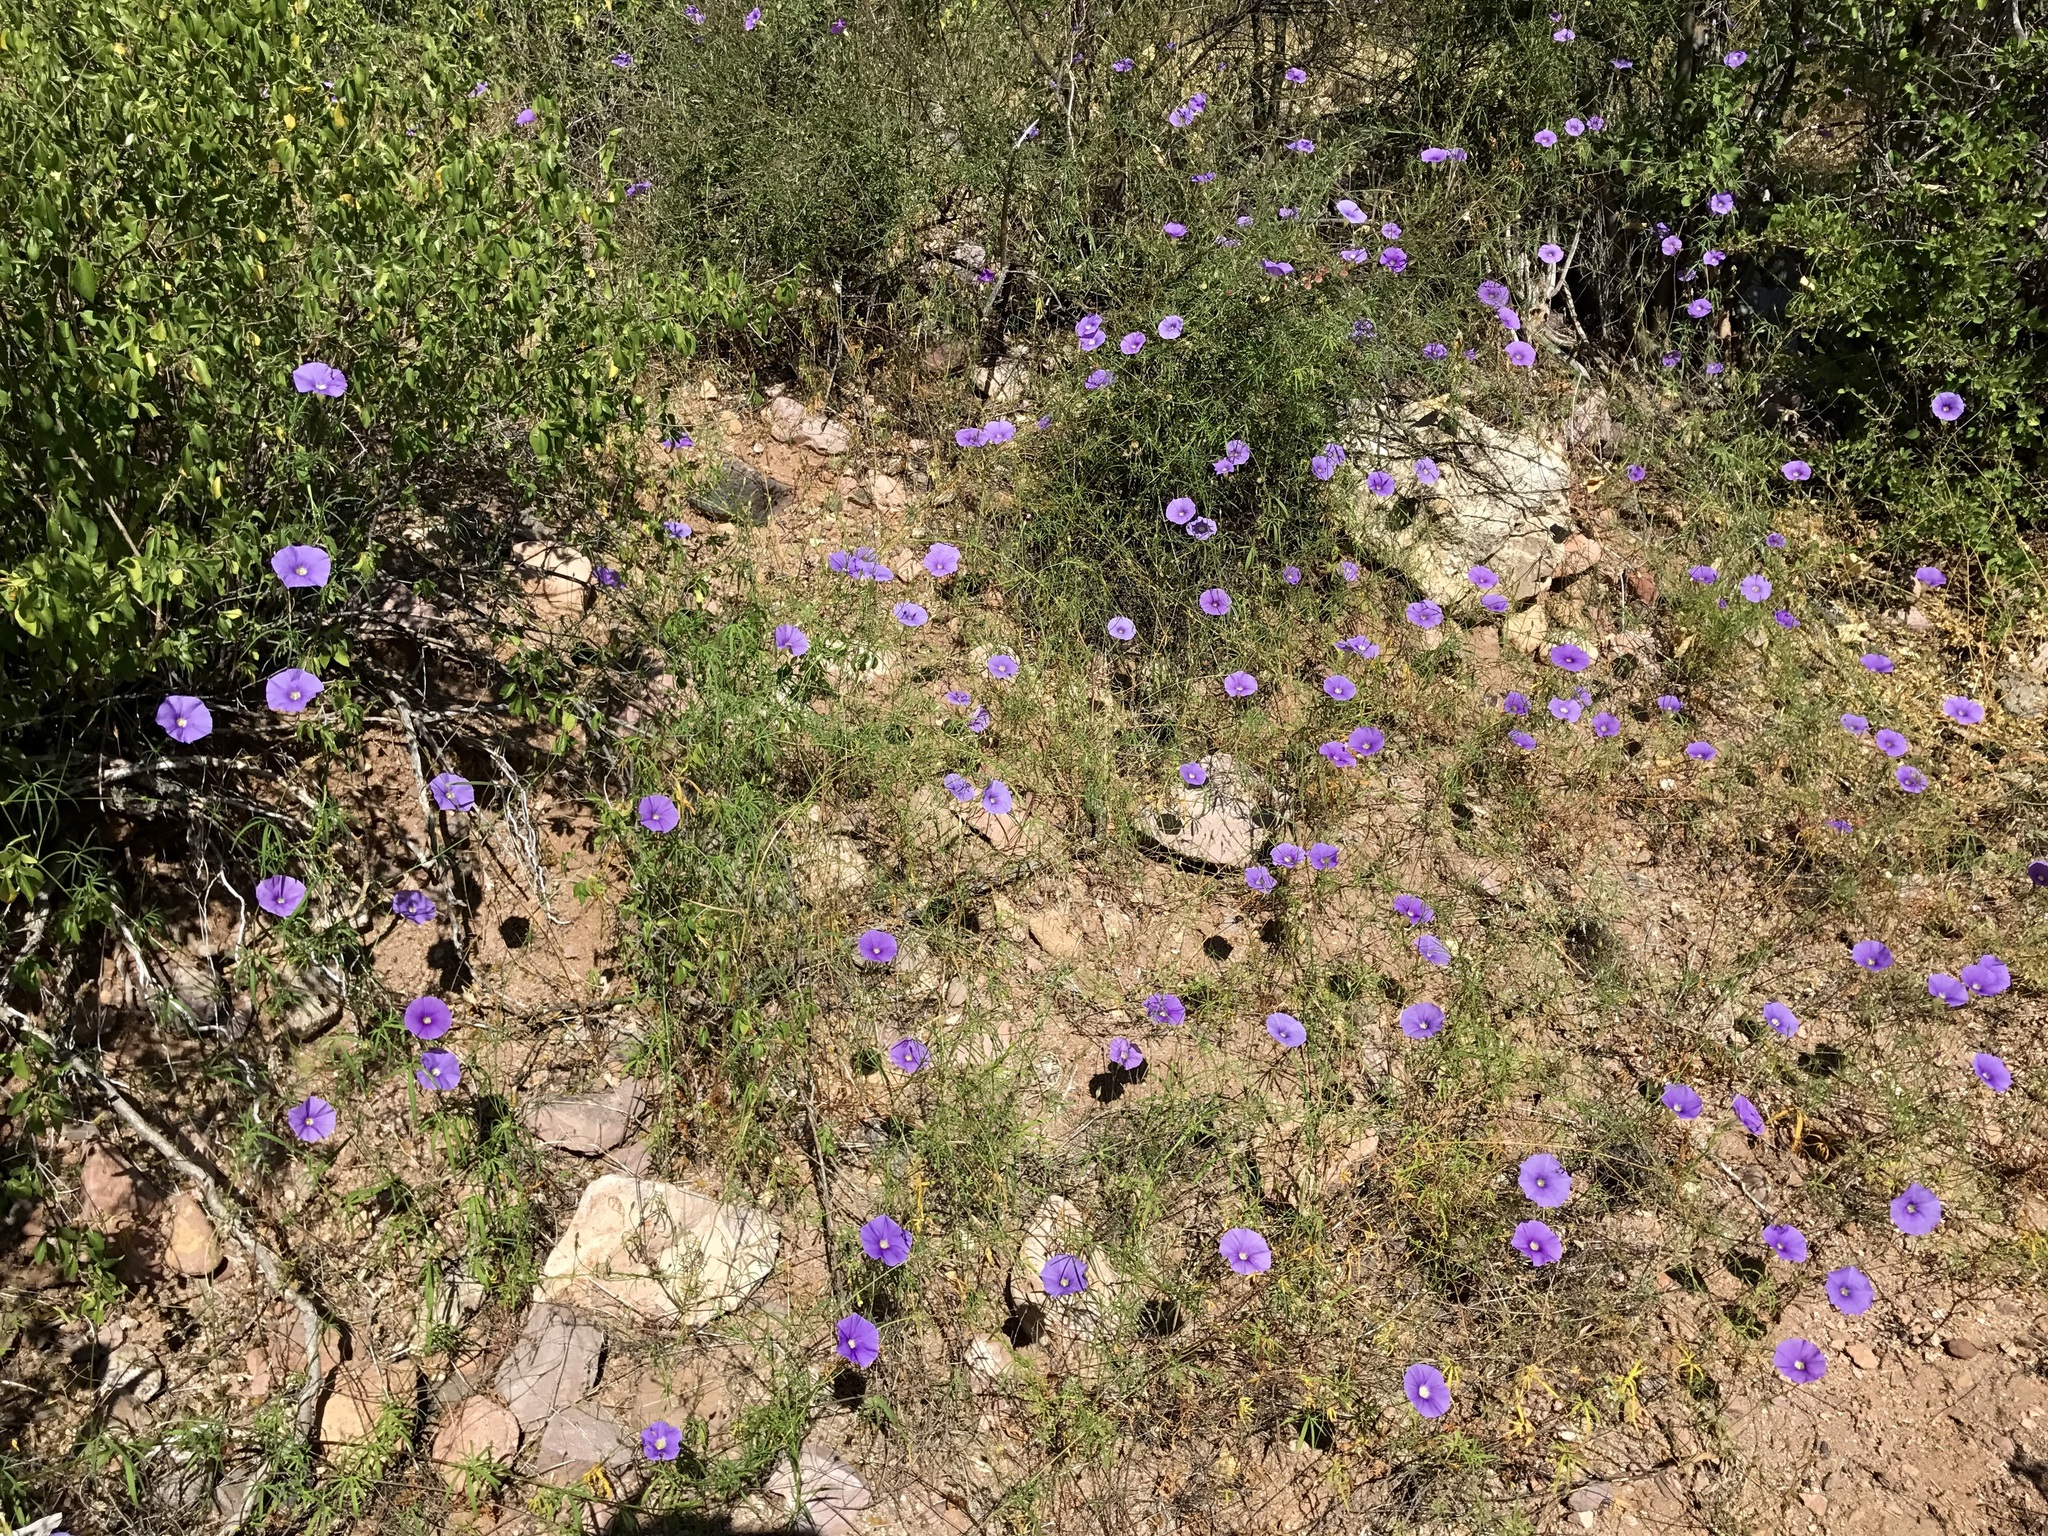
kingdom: Plantae
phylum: Tracheophyta
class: Magnoliopsida
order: Solanales
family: Convolvulaceae
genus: Ipomoea
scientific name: Ipomoea ternifolia
